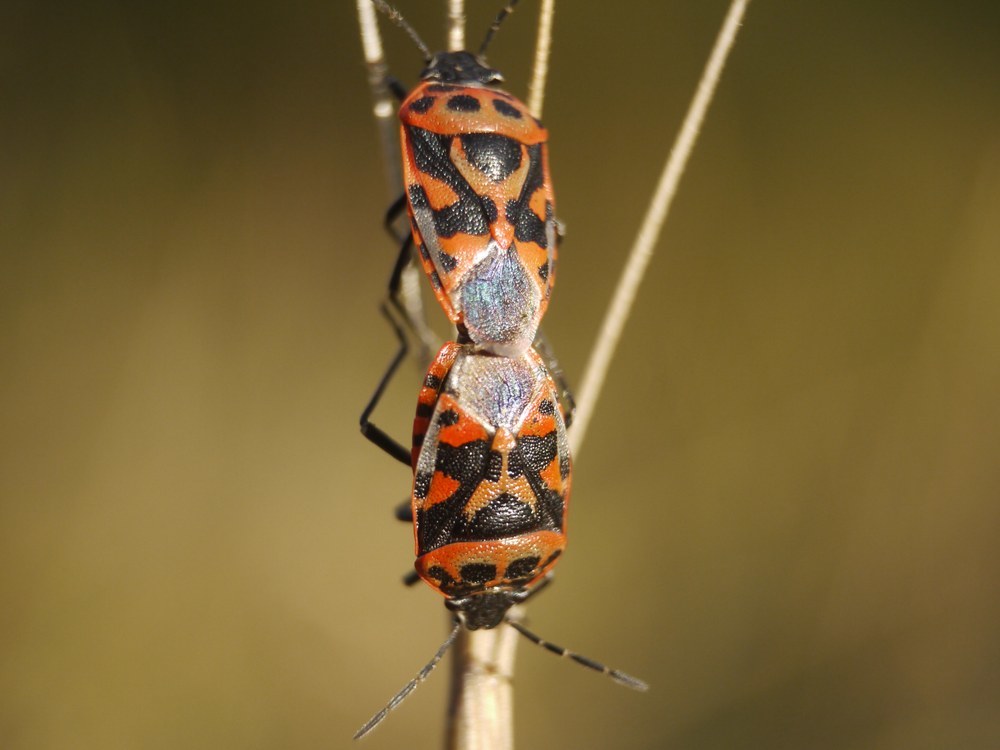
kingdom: Animalia
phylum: Arthropoda
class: Insecta
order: Hemiptera
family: Pentatomidae
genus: Eurydema
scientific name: Eurydema ornata
